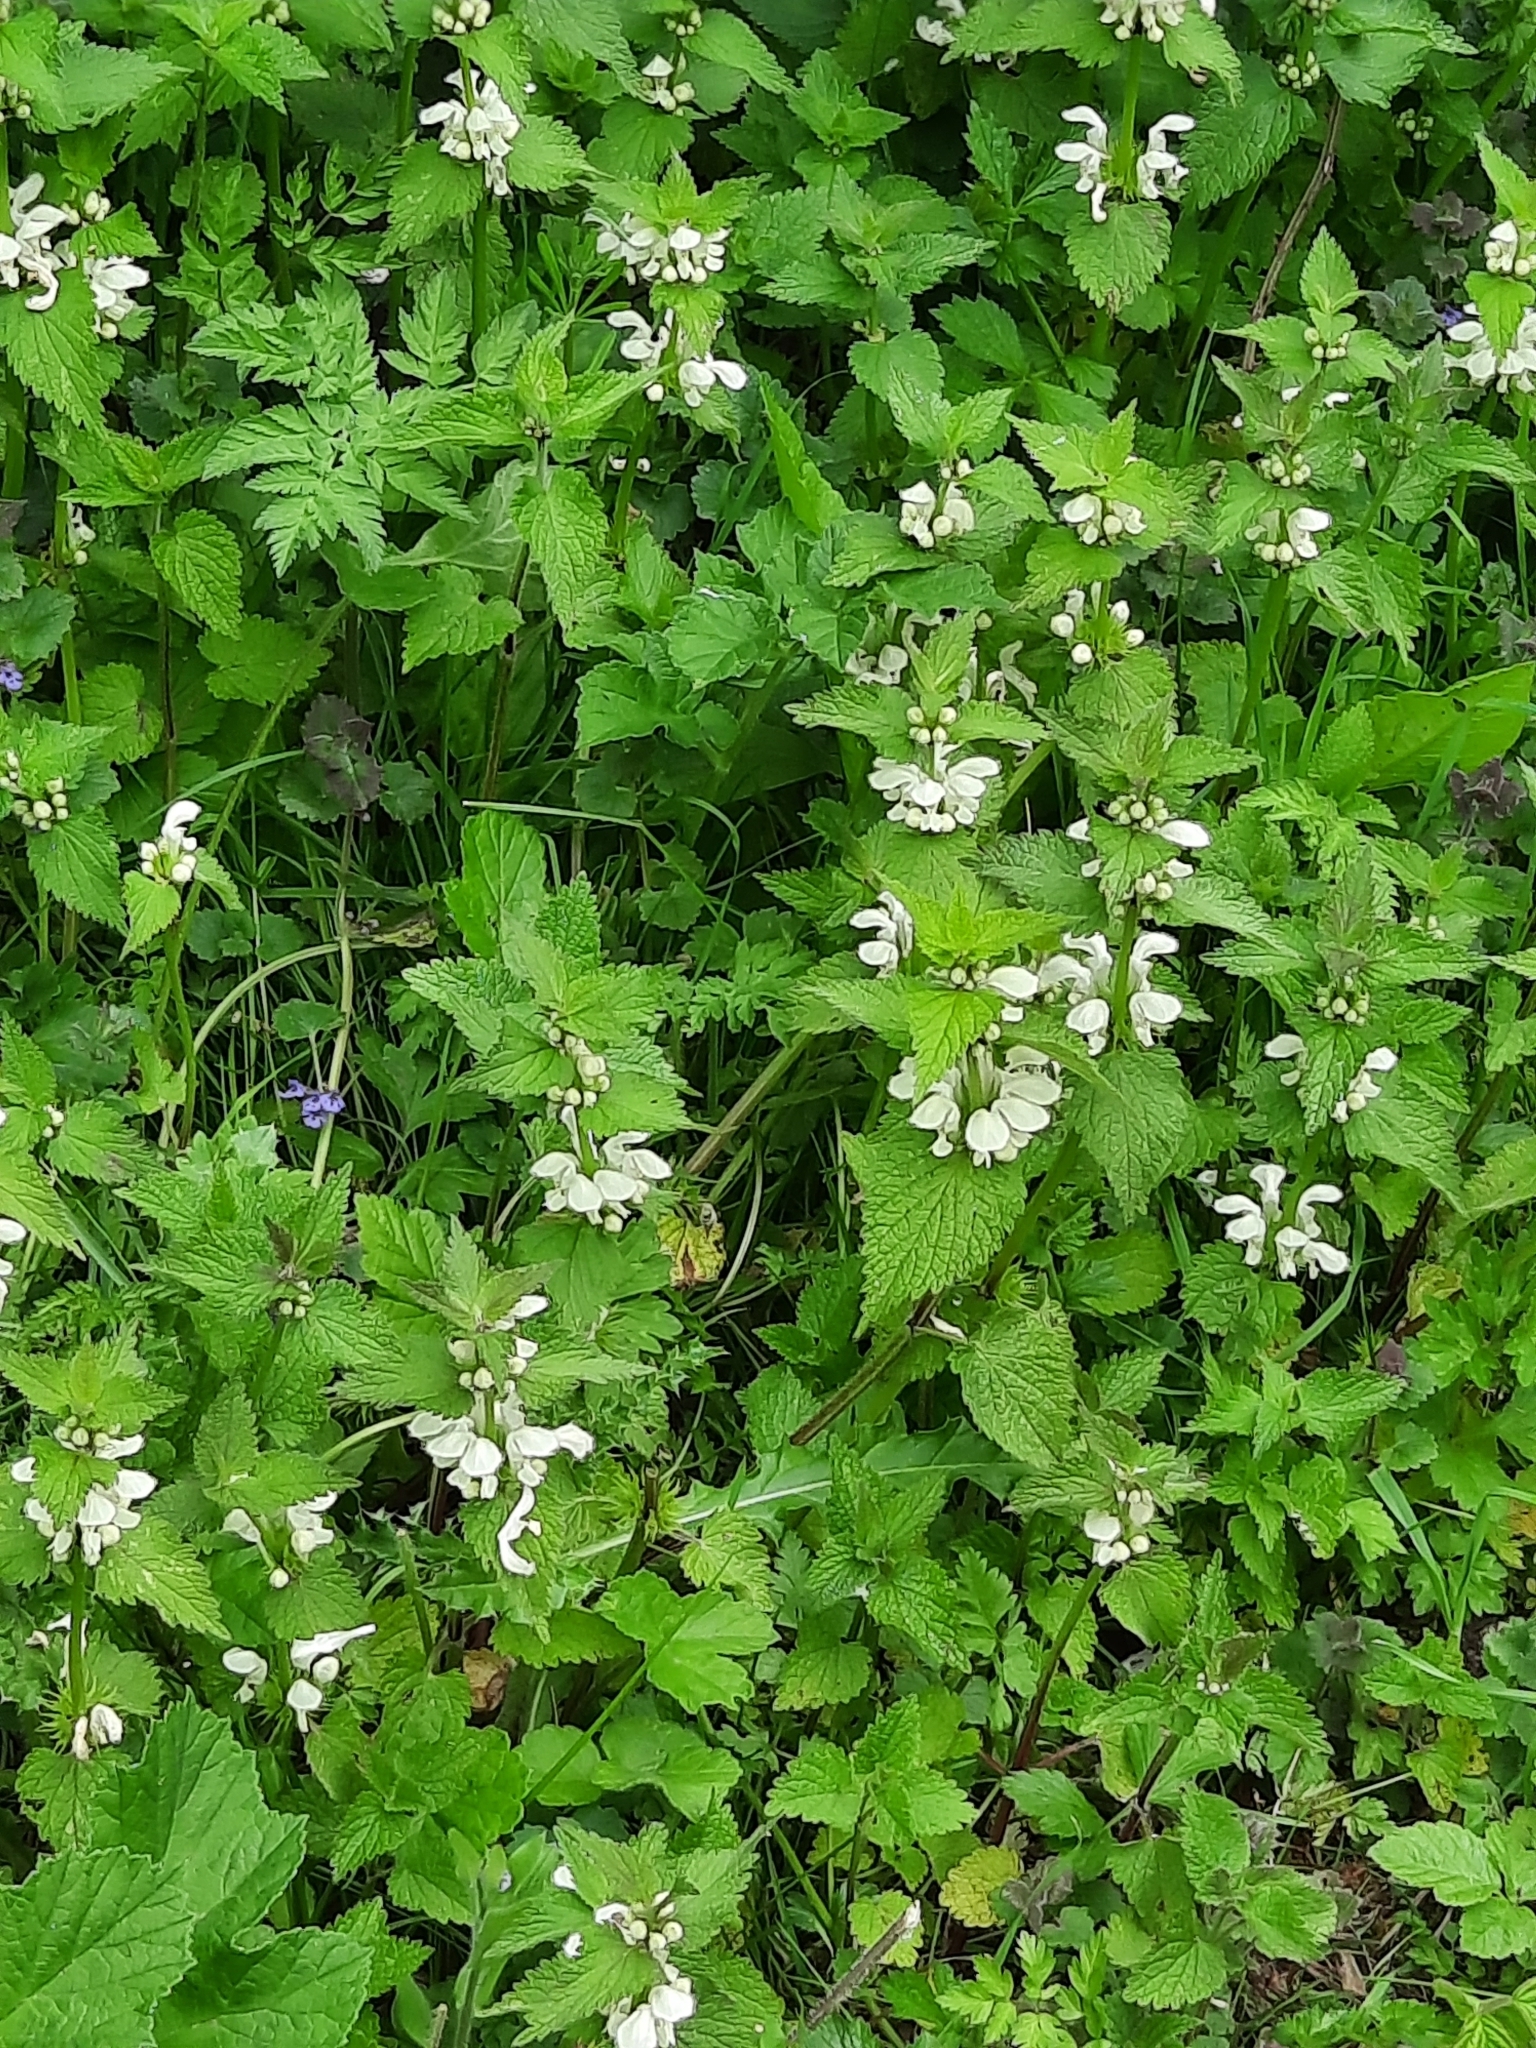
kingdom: Plantae
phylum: Tracheophyta
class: Magnoliopsida
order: Lamiales
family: Lamiaceae
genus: Lamium
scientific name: Lamium album
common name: White dead-nettle
